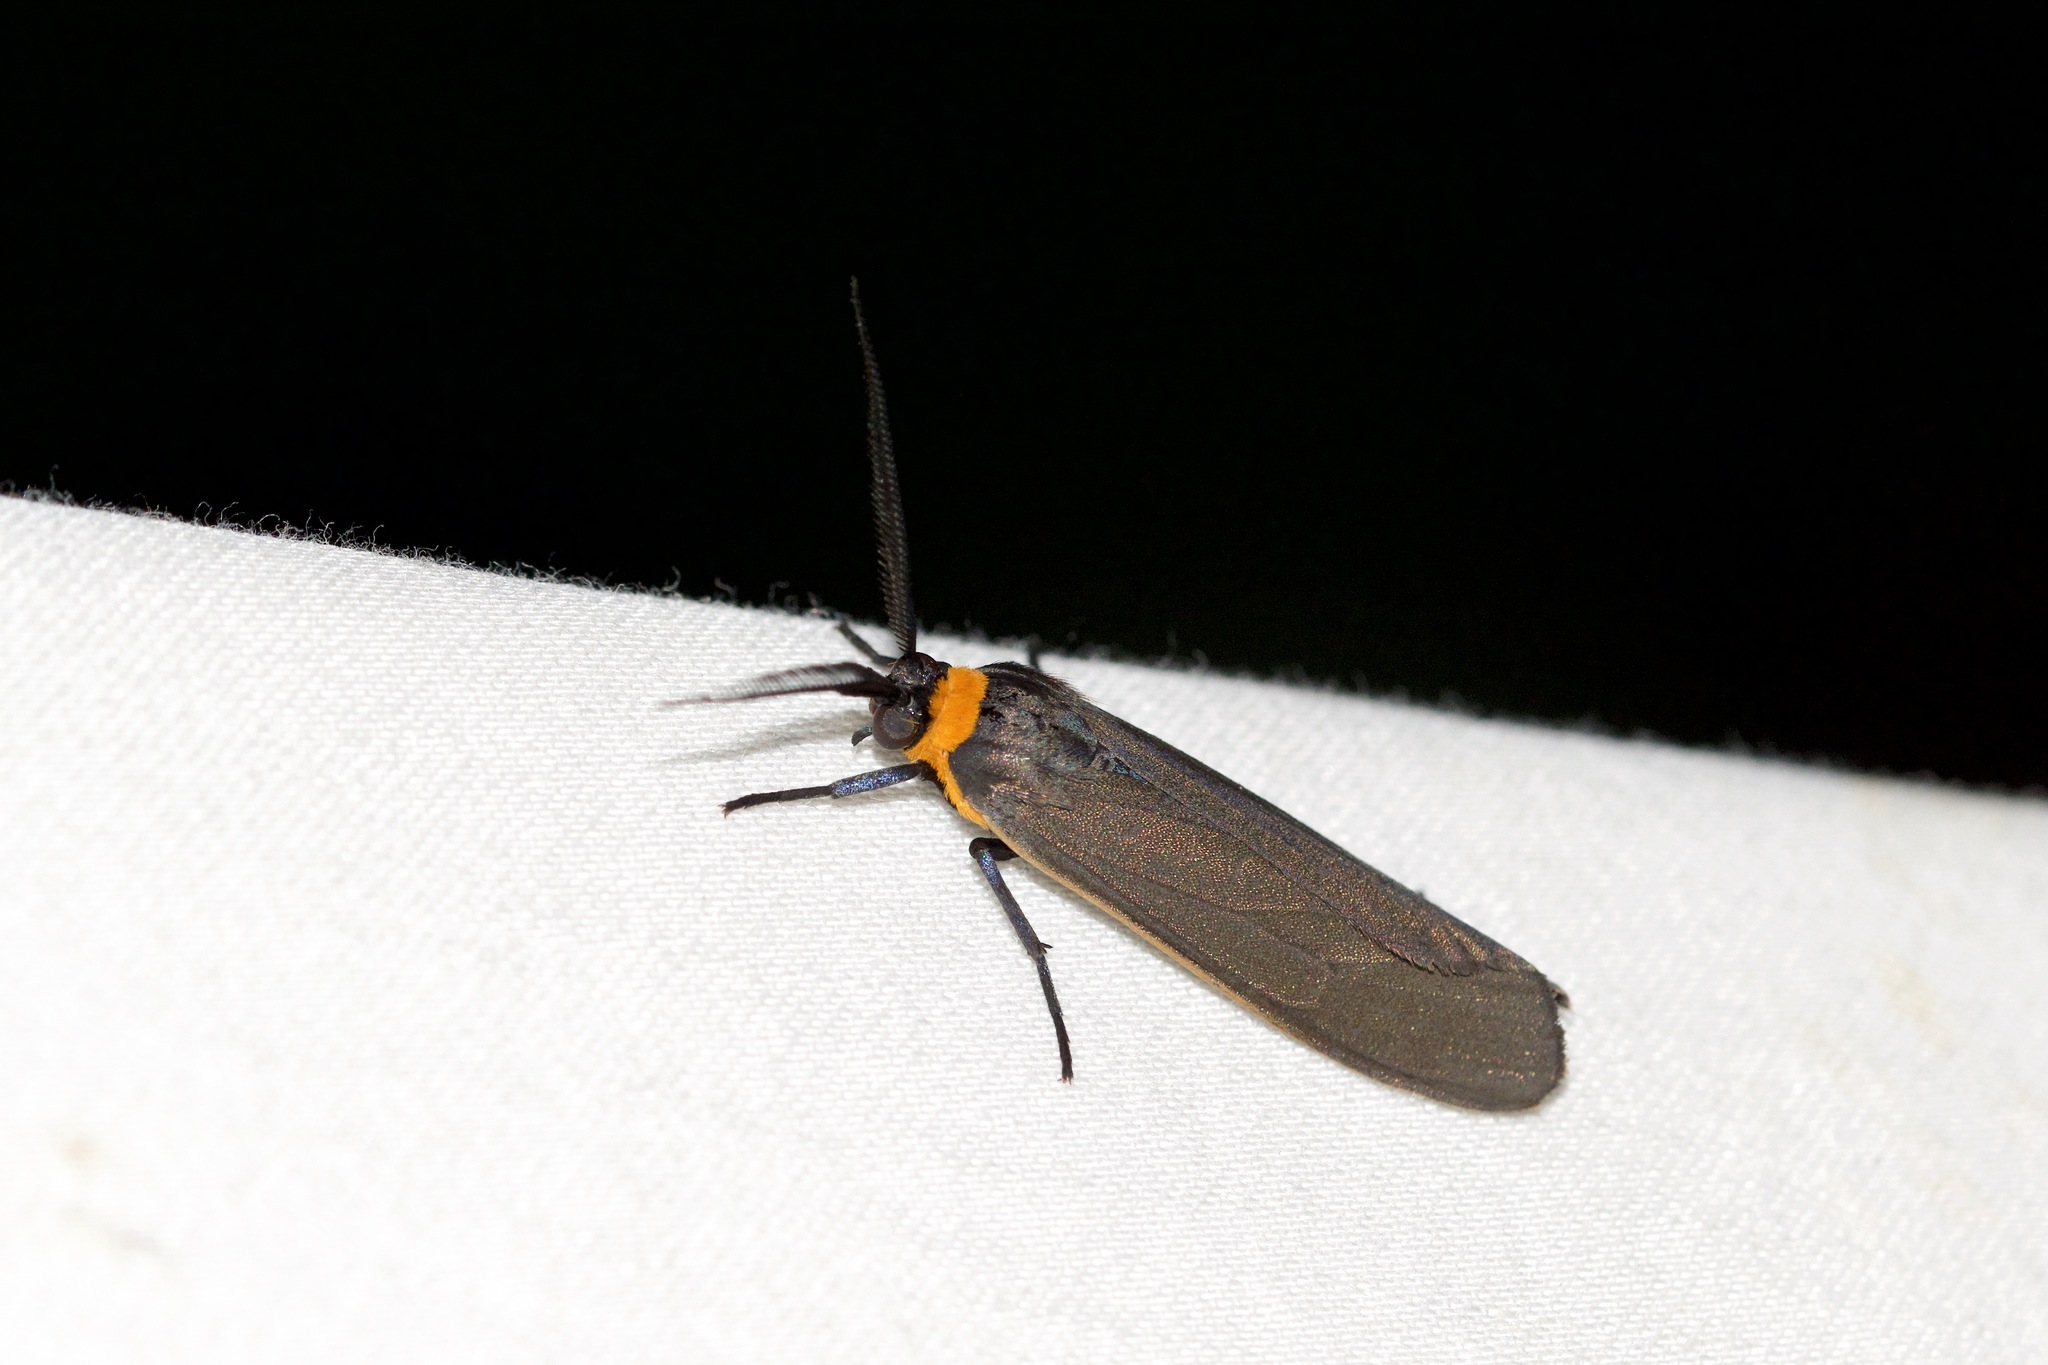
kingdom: Animalia
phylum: Arthropoda
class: Insecta
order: Lepidoptera
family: Erebidae
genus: Cisseps
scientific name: Cisseps fulvicollis
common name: Yellow-collared scape moth
